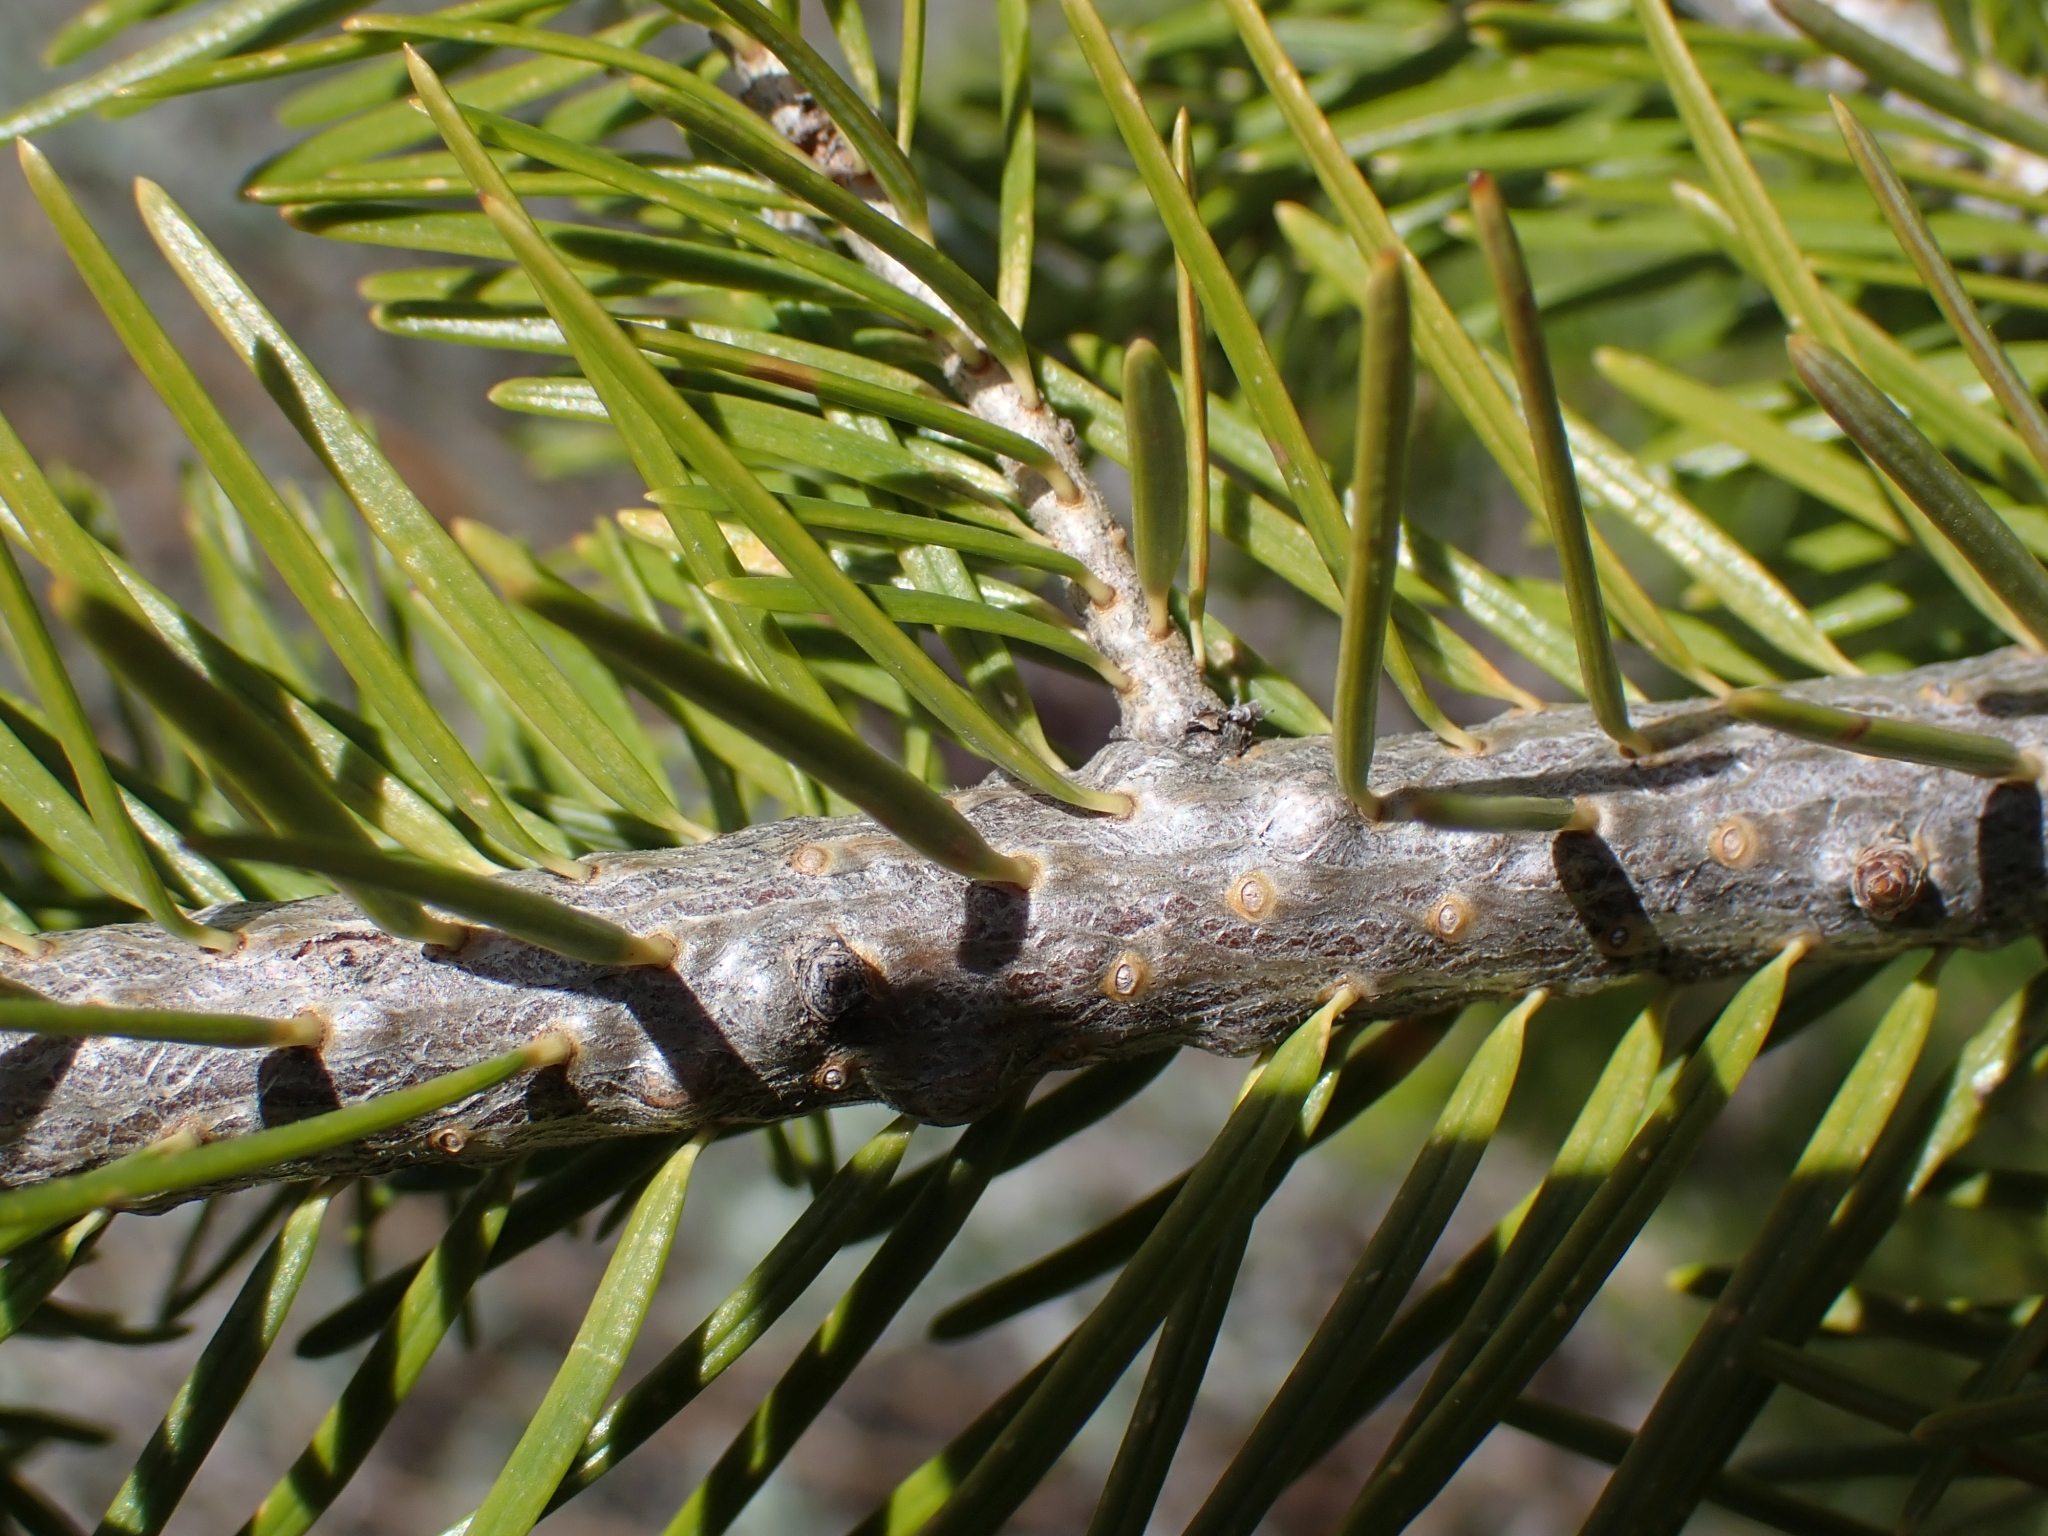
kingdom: Plantae
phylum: Tracheophyta
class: Pinopsida
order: Pinales
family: Pinaceae
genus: Pseudotsuga
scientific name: Pseudotsuga menziesii
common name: Douglas fir
